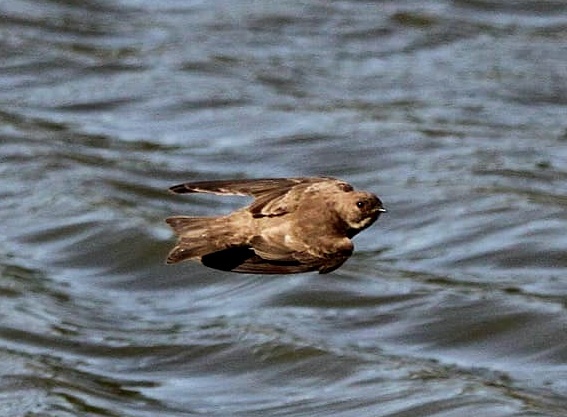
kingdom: Animalia
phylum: Chordata
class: Aves
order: Passeriformes
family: Hirundinidae
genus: Riparia
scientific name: Riparia paludicola
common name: Brown-throated martin
